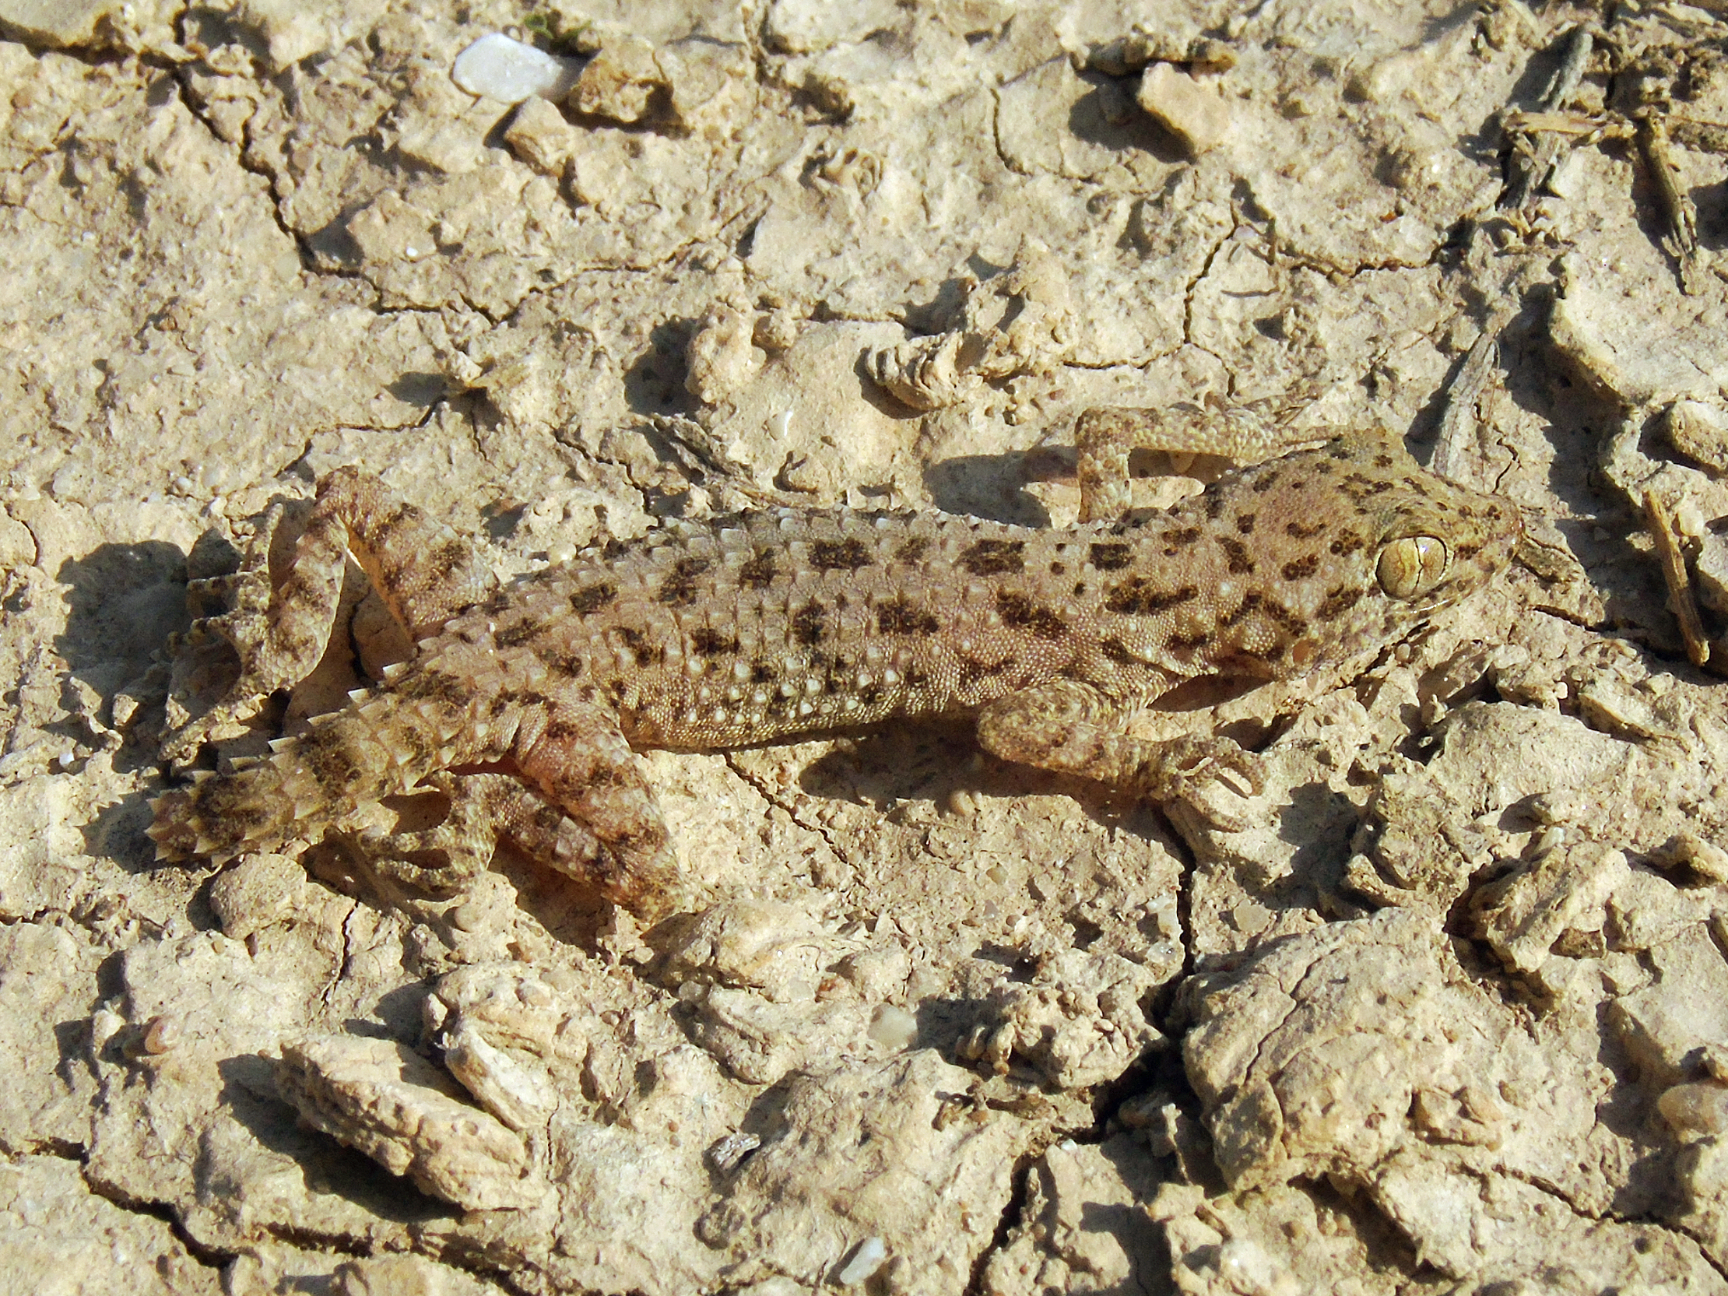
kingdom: Animalia
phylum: Chordata
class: Squamata
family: Gekkonidae
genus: Cyrtopodion
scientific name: Cyrtopodion scabrum
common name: Rough-tailed gecko
